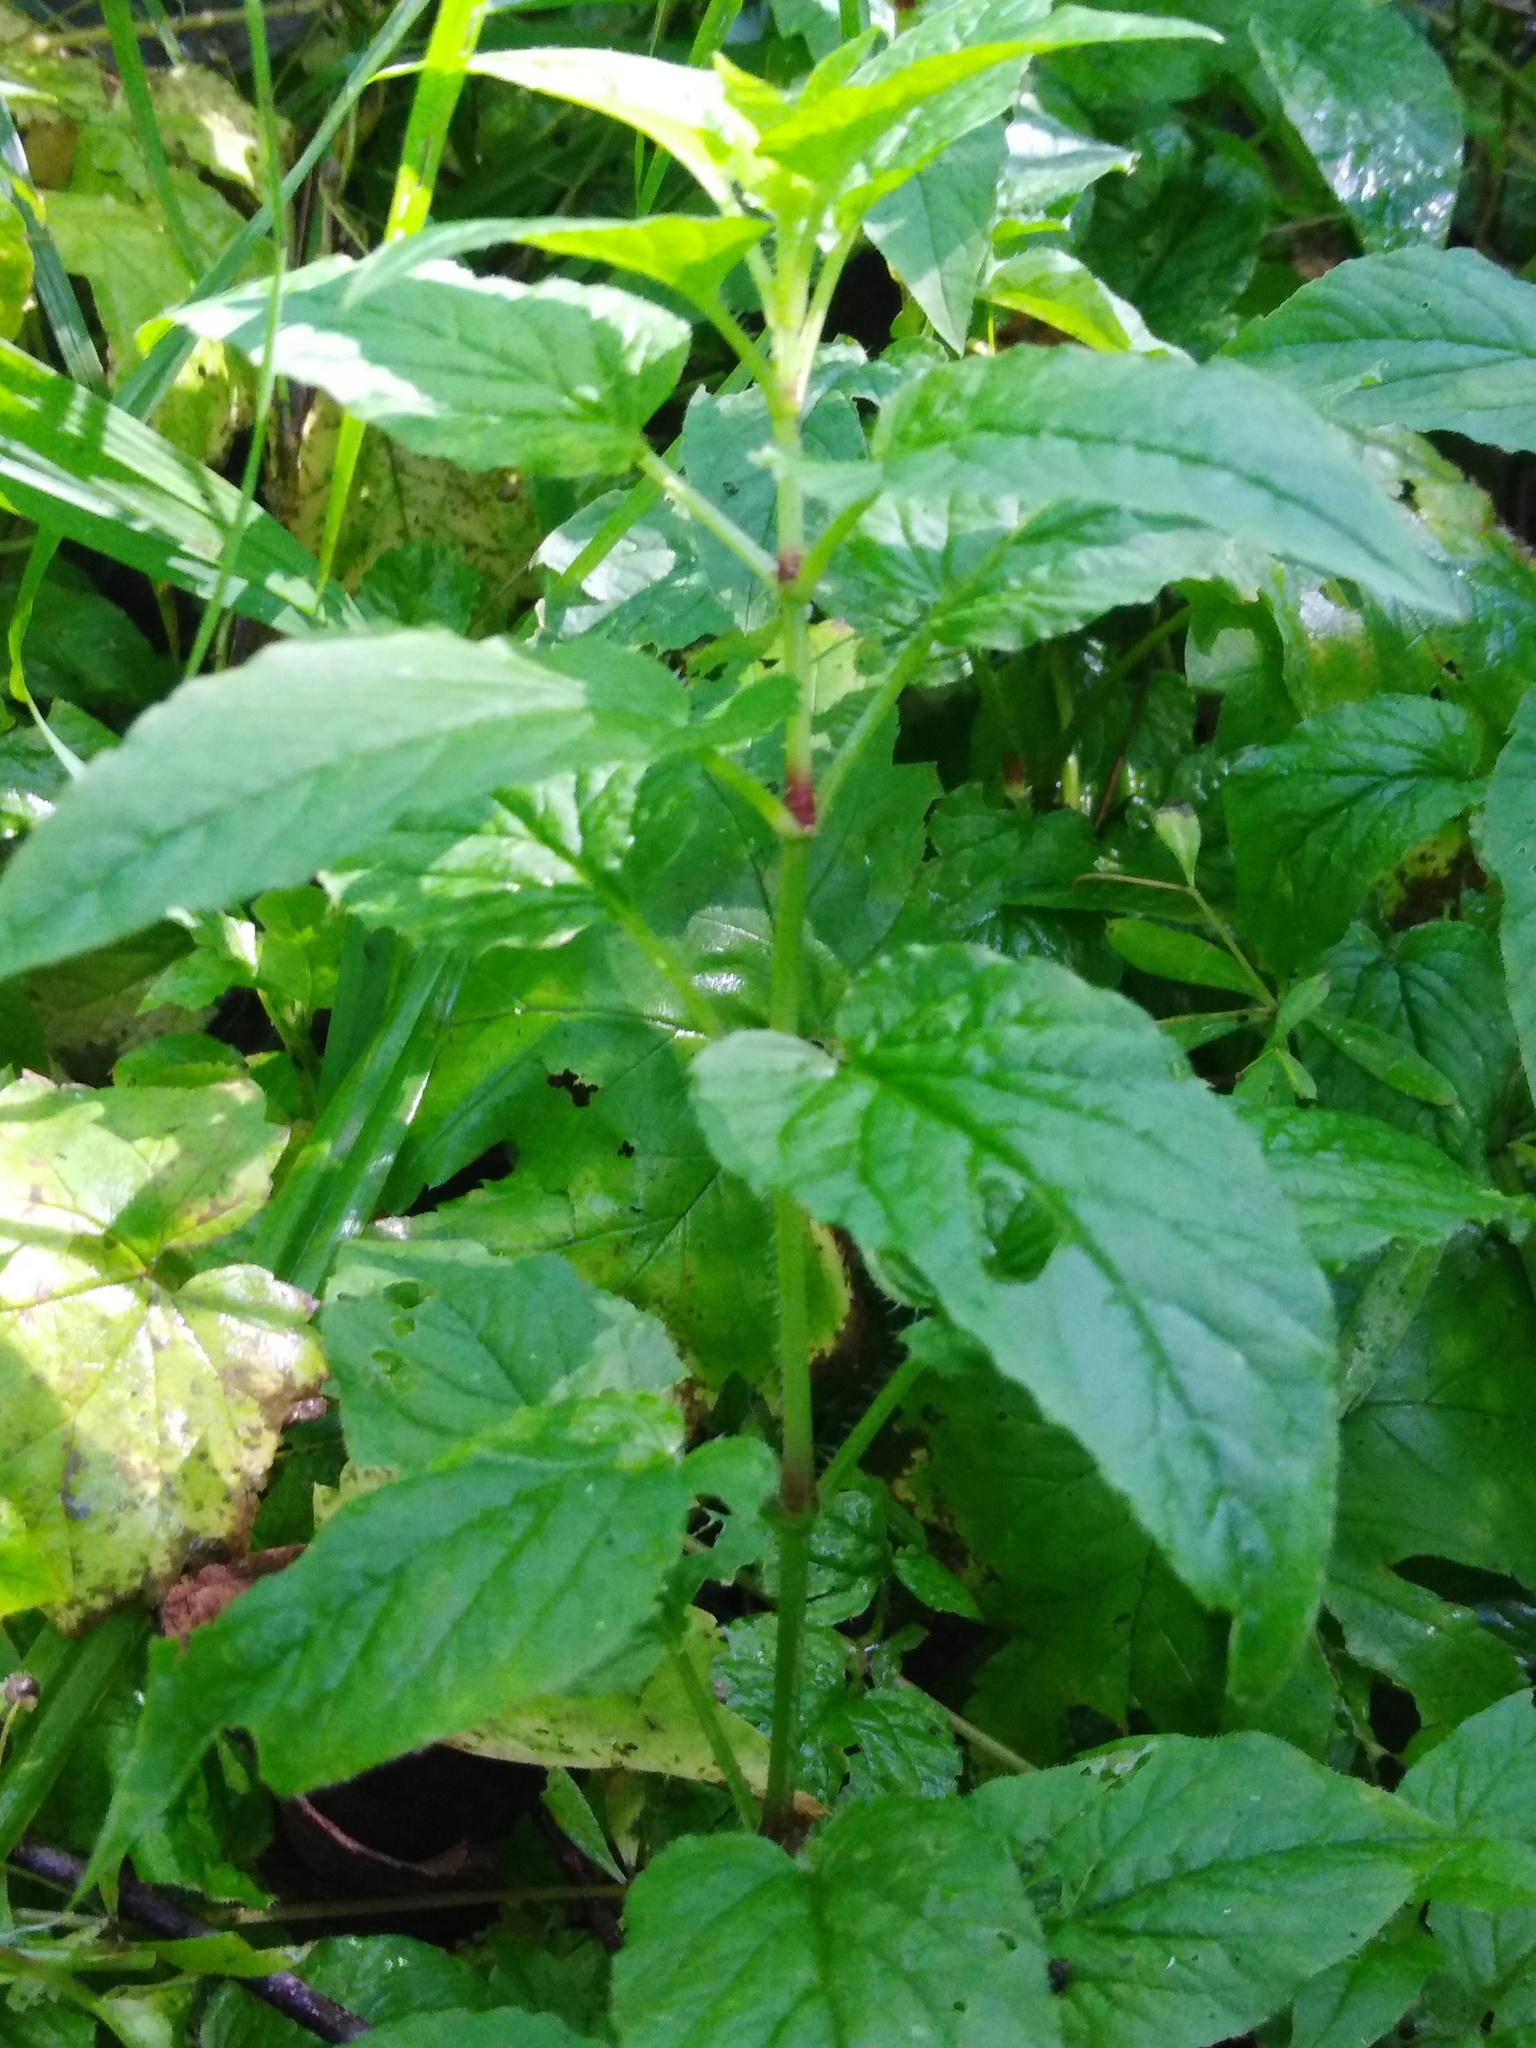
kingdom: Plantae
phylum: Tracheophyta
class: Magnoliopsida
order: Caryophyllales
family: Caryophyllaceae
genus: Stellaria
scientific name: Stellaria nemorum
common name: Wood stitchwort
